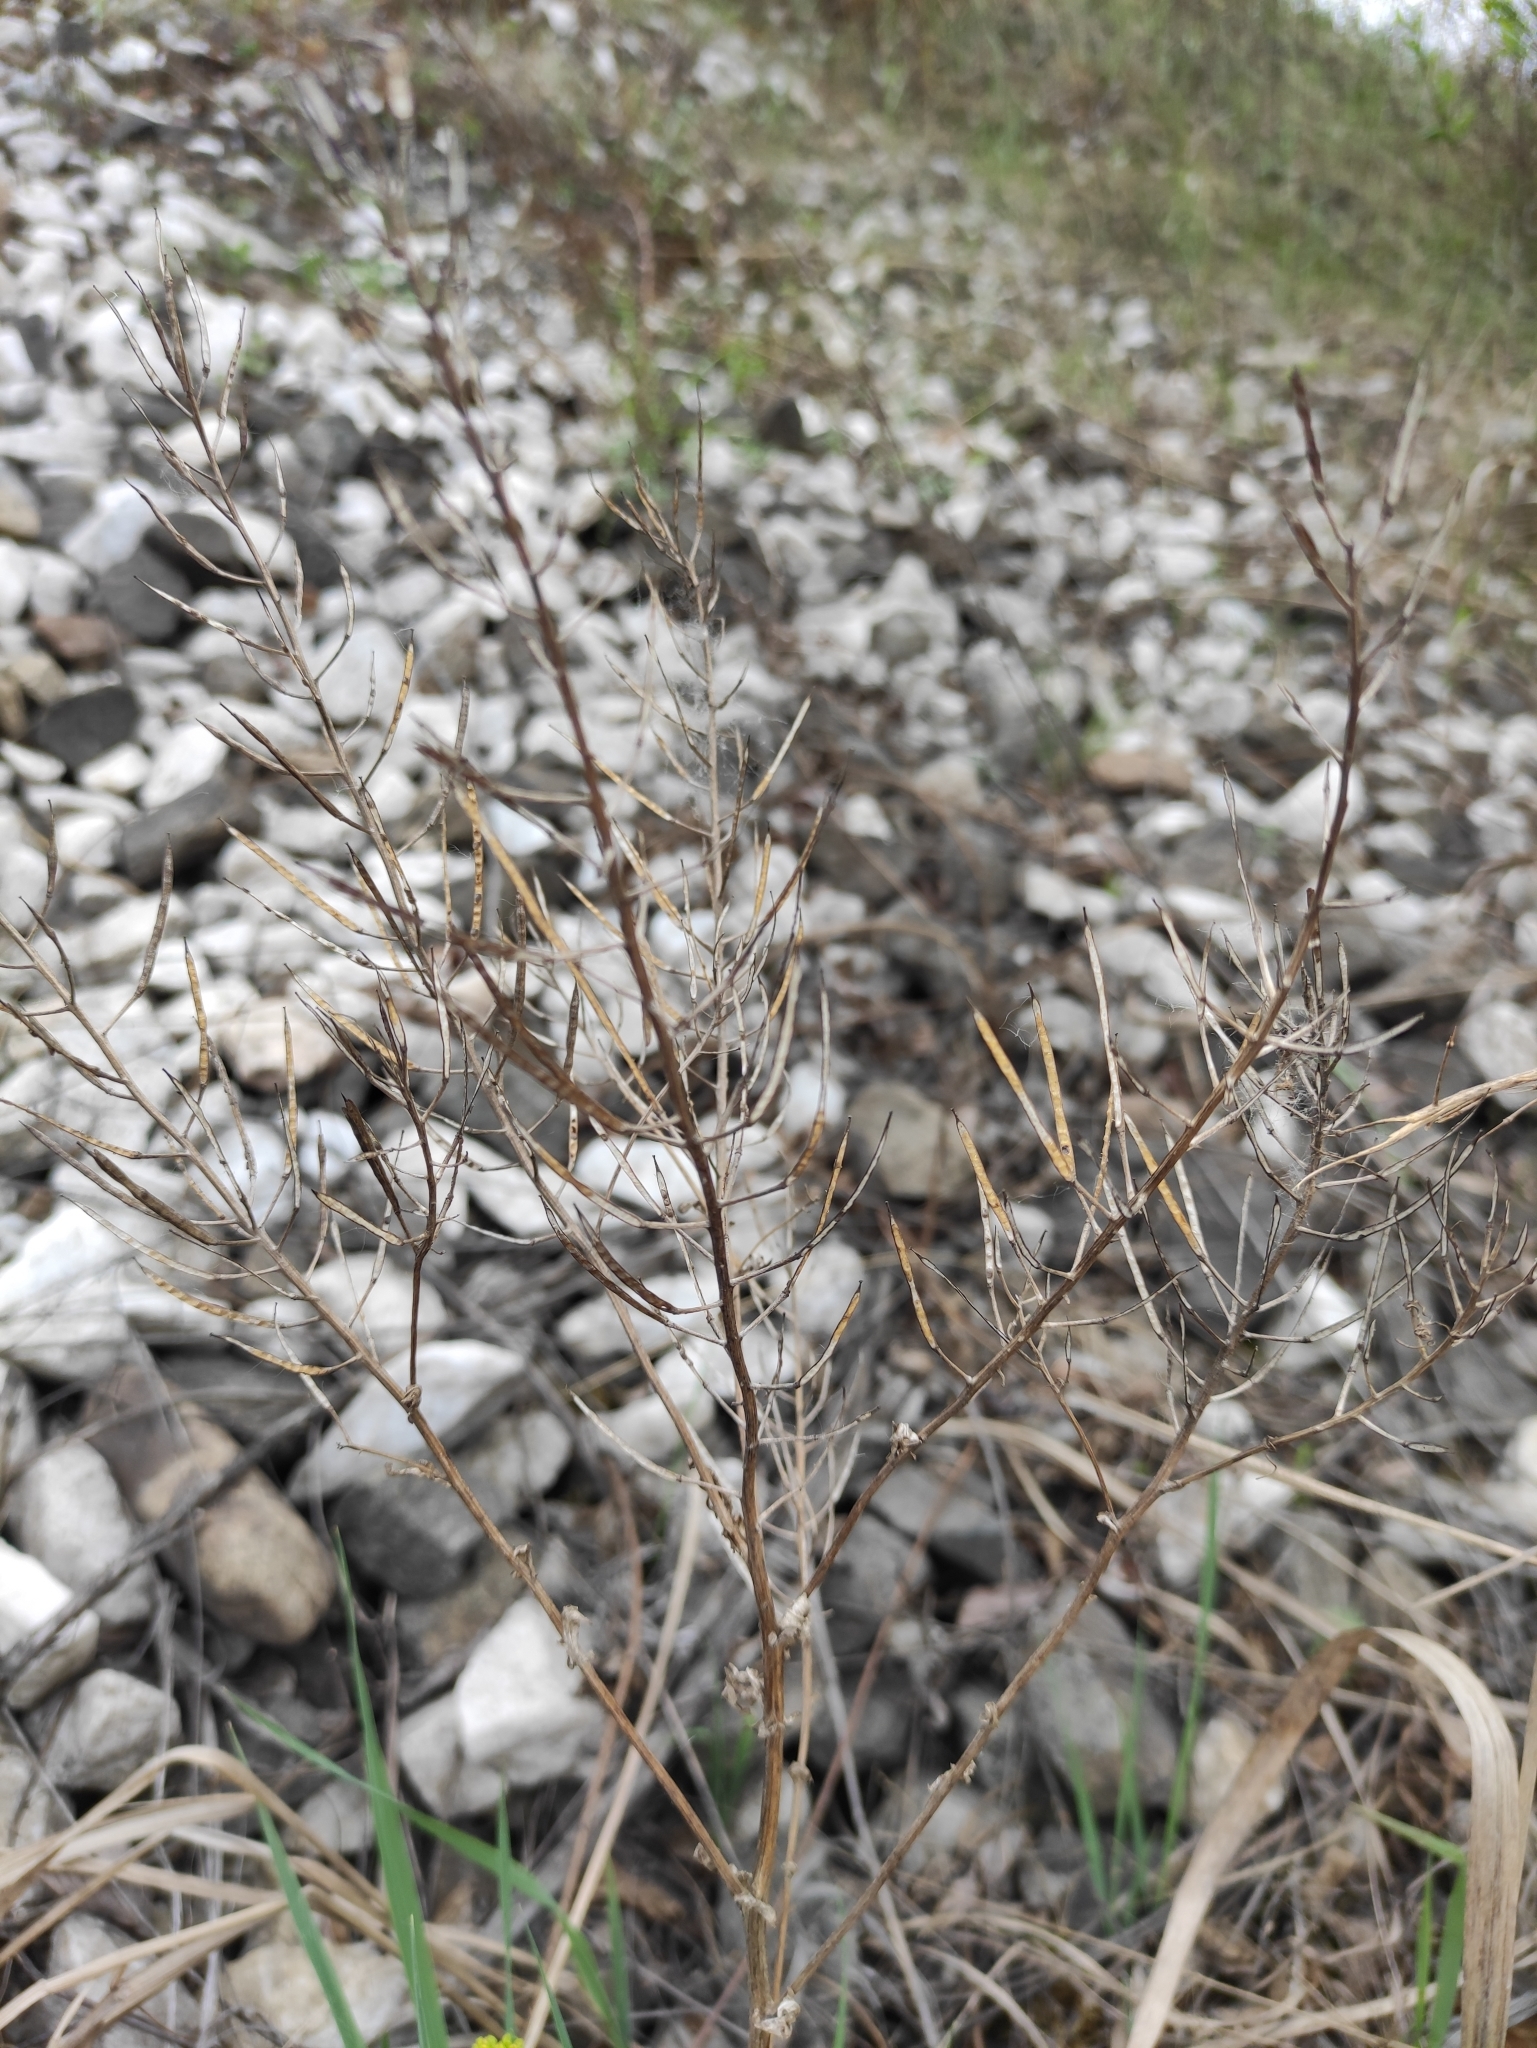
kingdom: Plantae
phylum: Tracheophyta
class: Magnoliopsida
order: Brassicales
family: Brassicaceae
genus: Barbarea
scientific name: Barbarea vulgaris
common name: Cressy-greens
